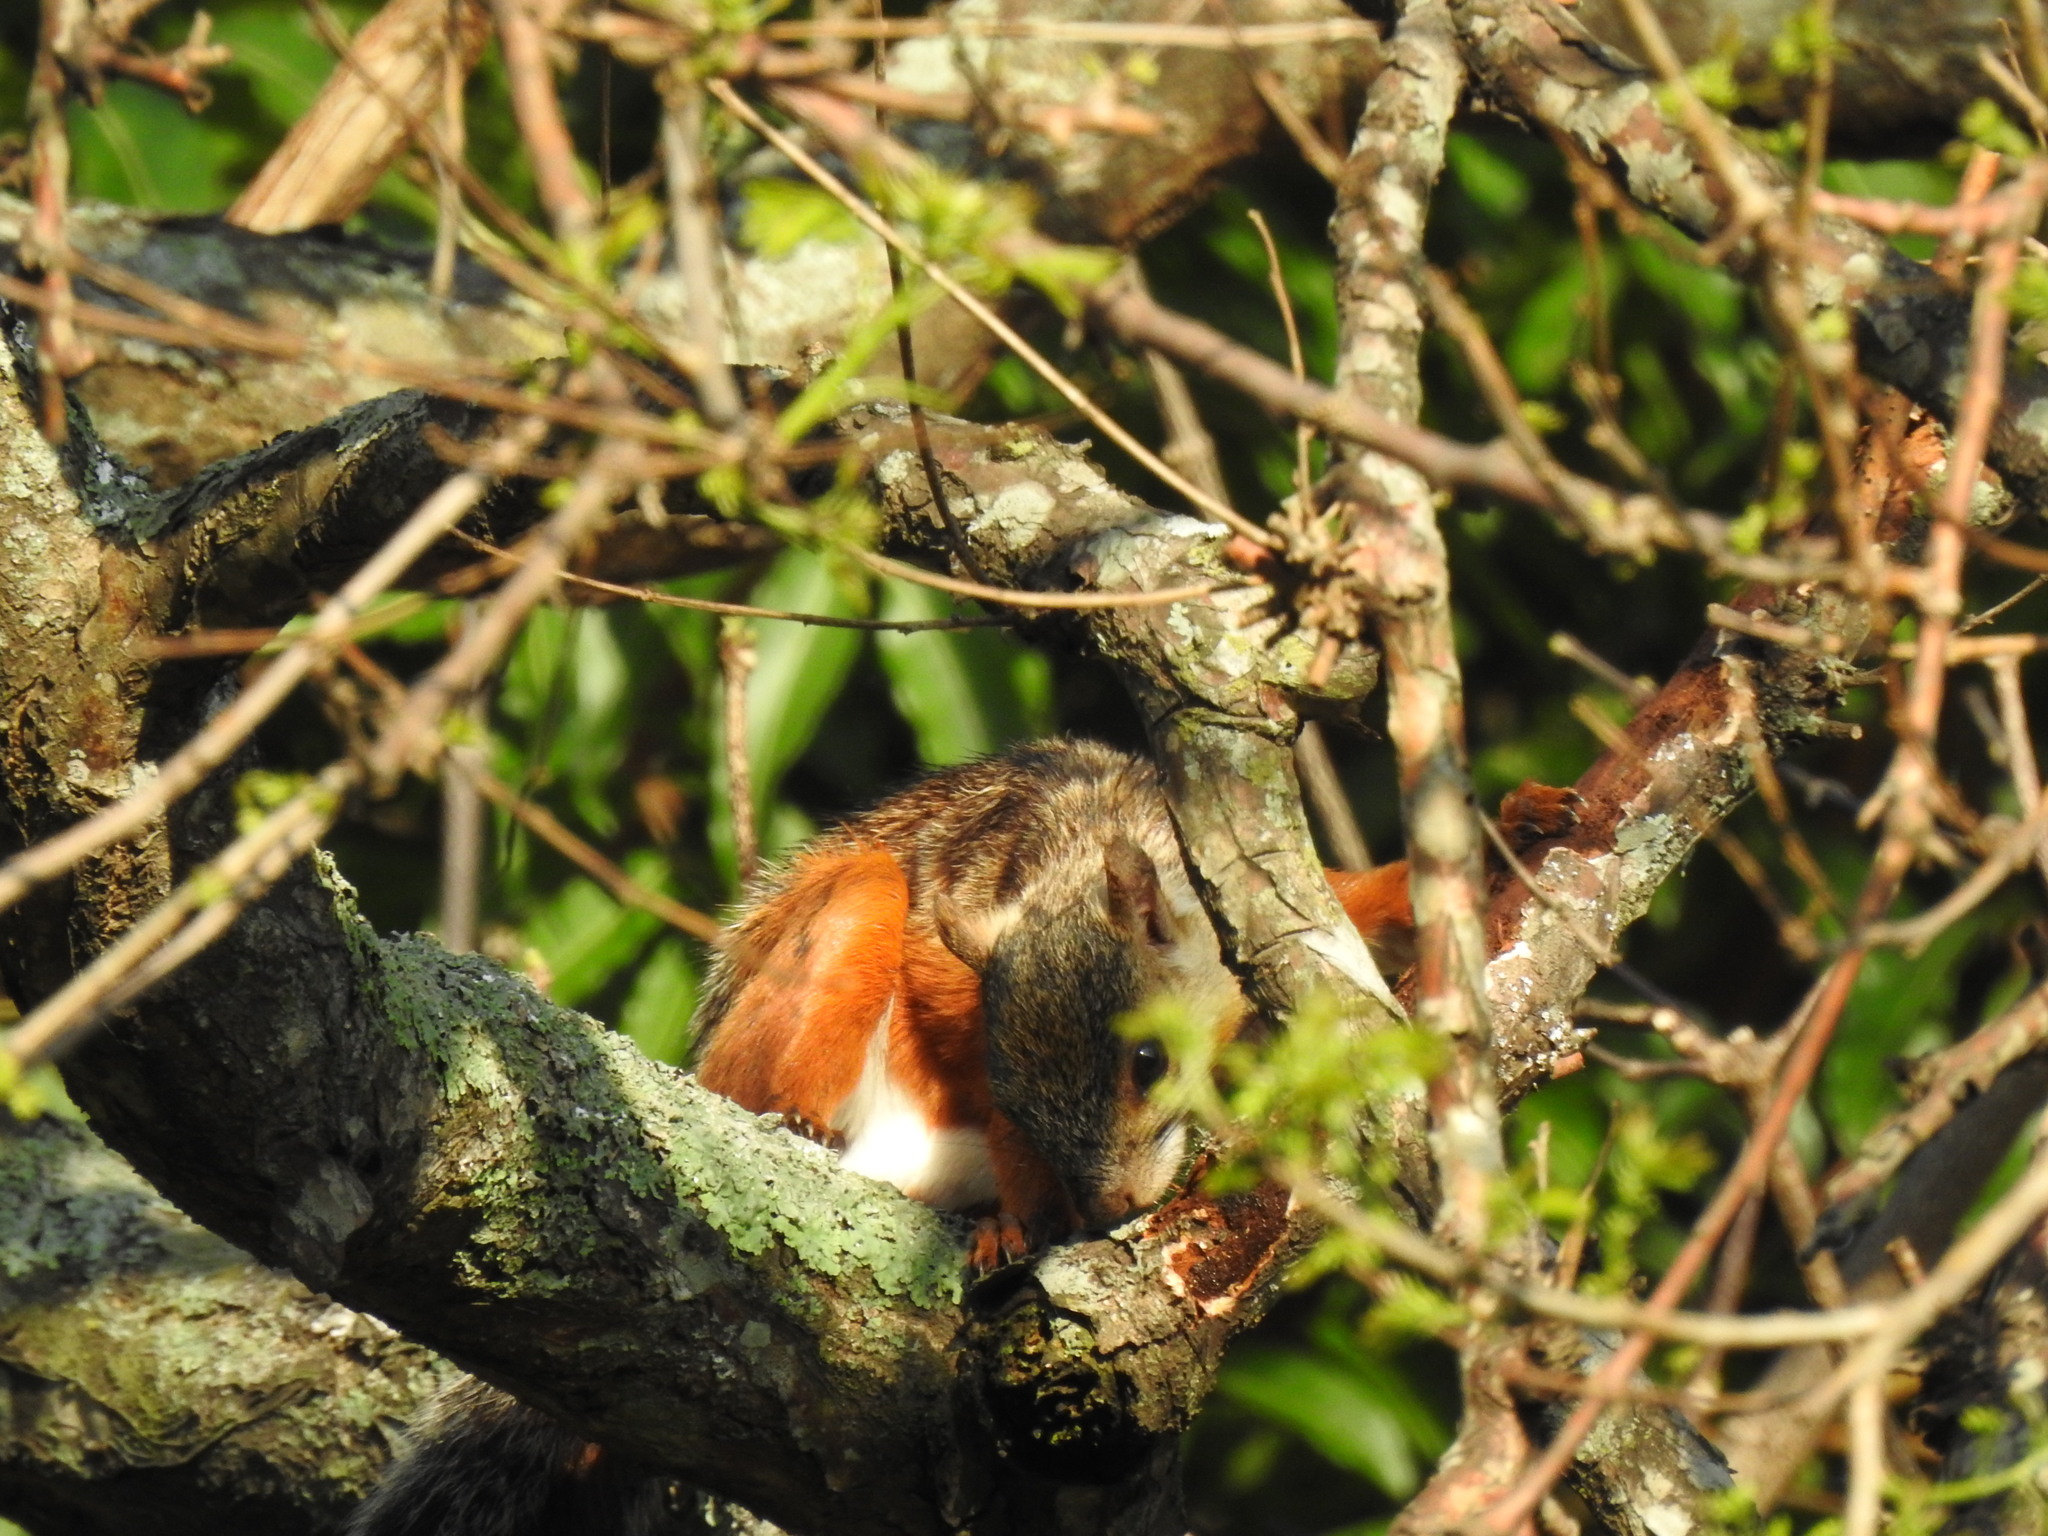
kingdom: Animalia
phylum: Chordata
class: Mammalia
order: Rodentia
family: Sciuridae
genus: Sciurus
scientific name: Sciurus variegatoides
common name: Variegated squirrel
